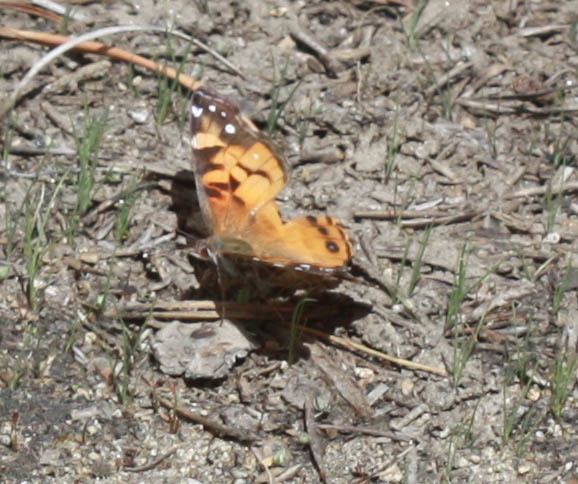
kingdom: Animalia
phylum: Arthropoda
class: Insecta
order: Lepidoptera
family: Nymphalidae
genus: Vanessa
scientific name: Vanessa virginiensis
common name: American lady
